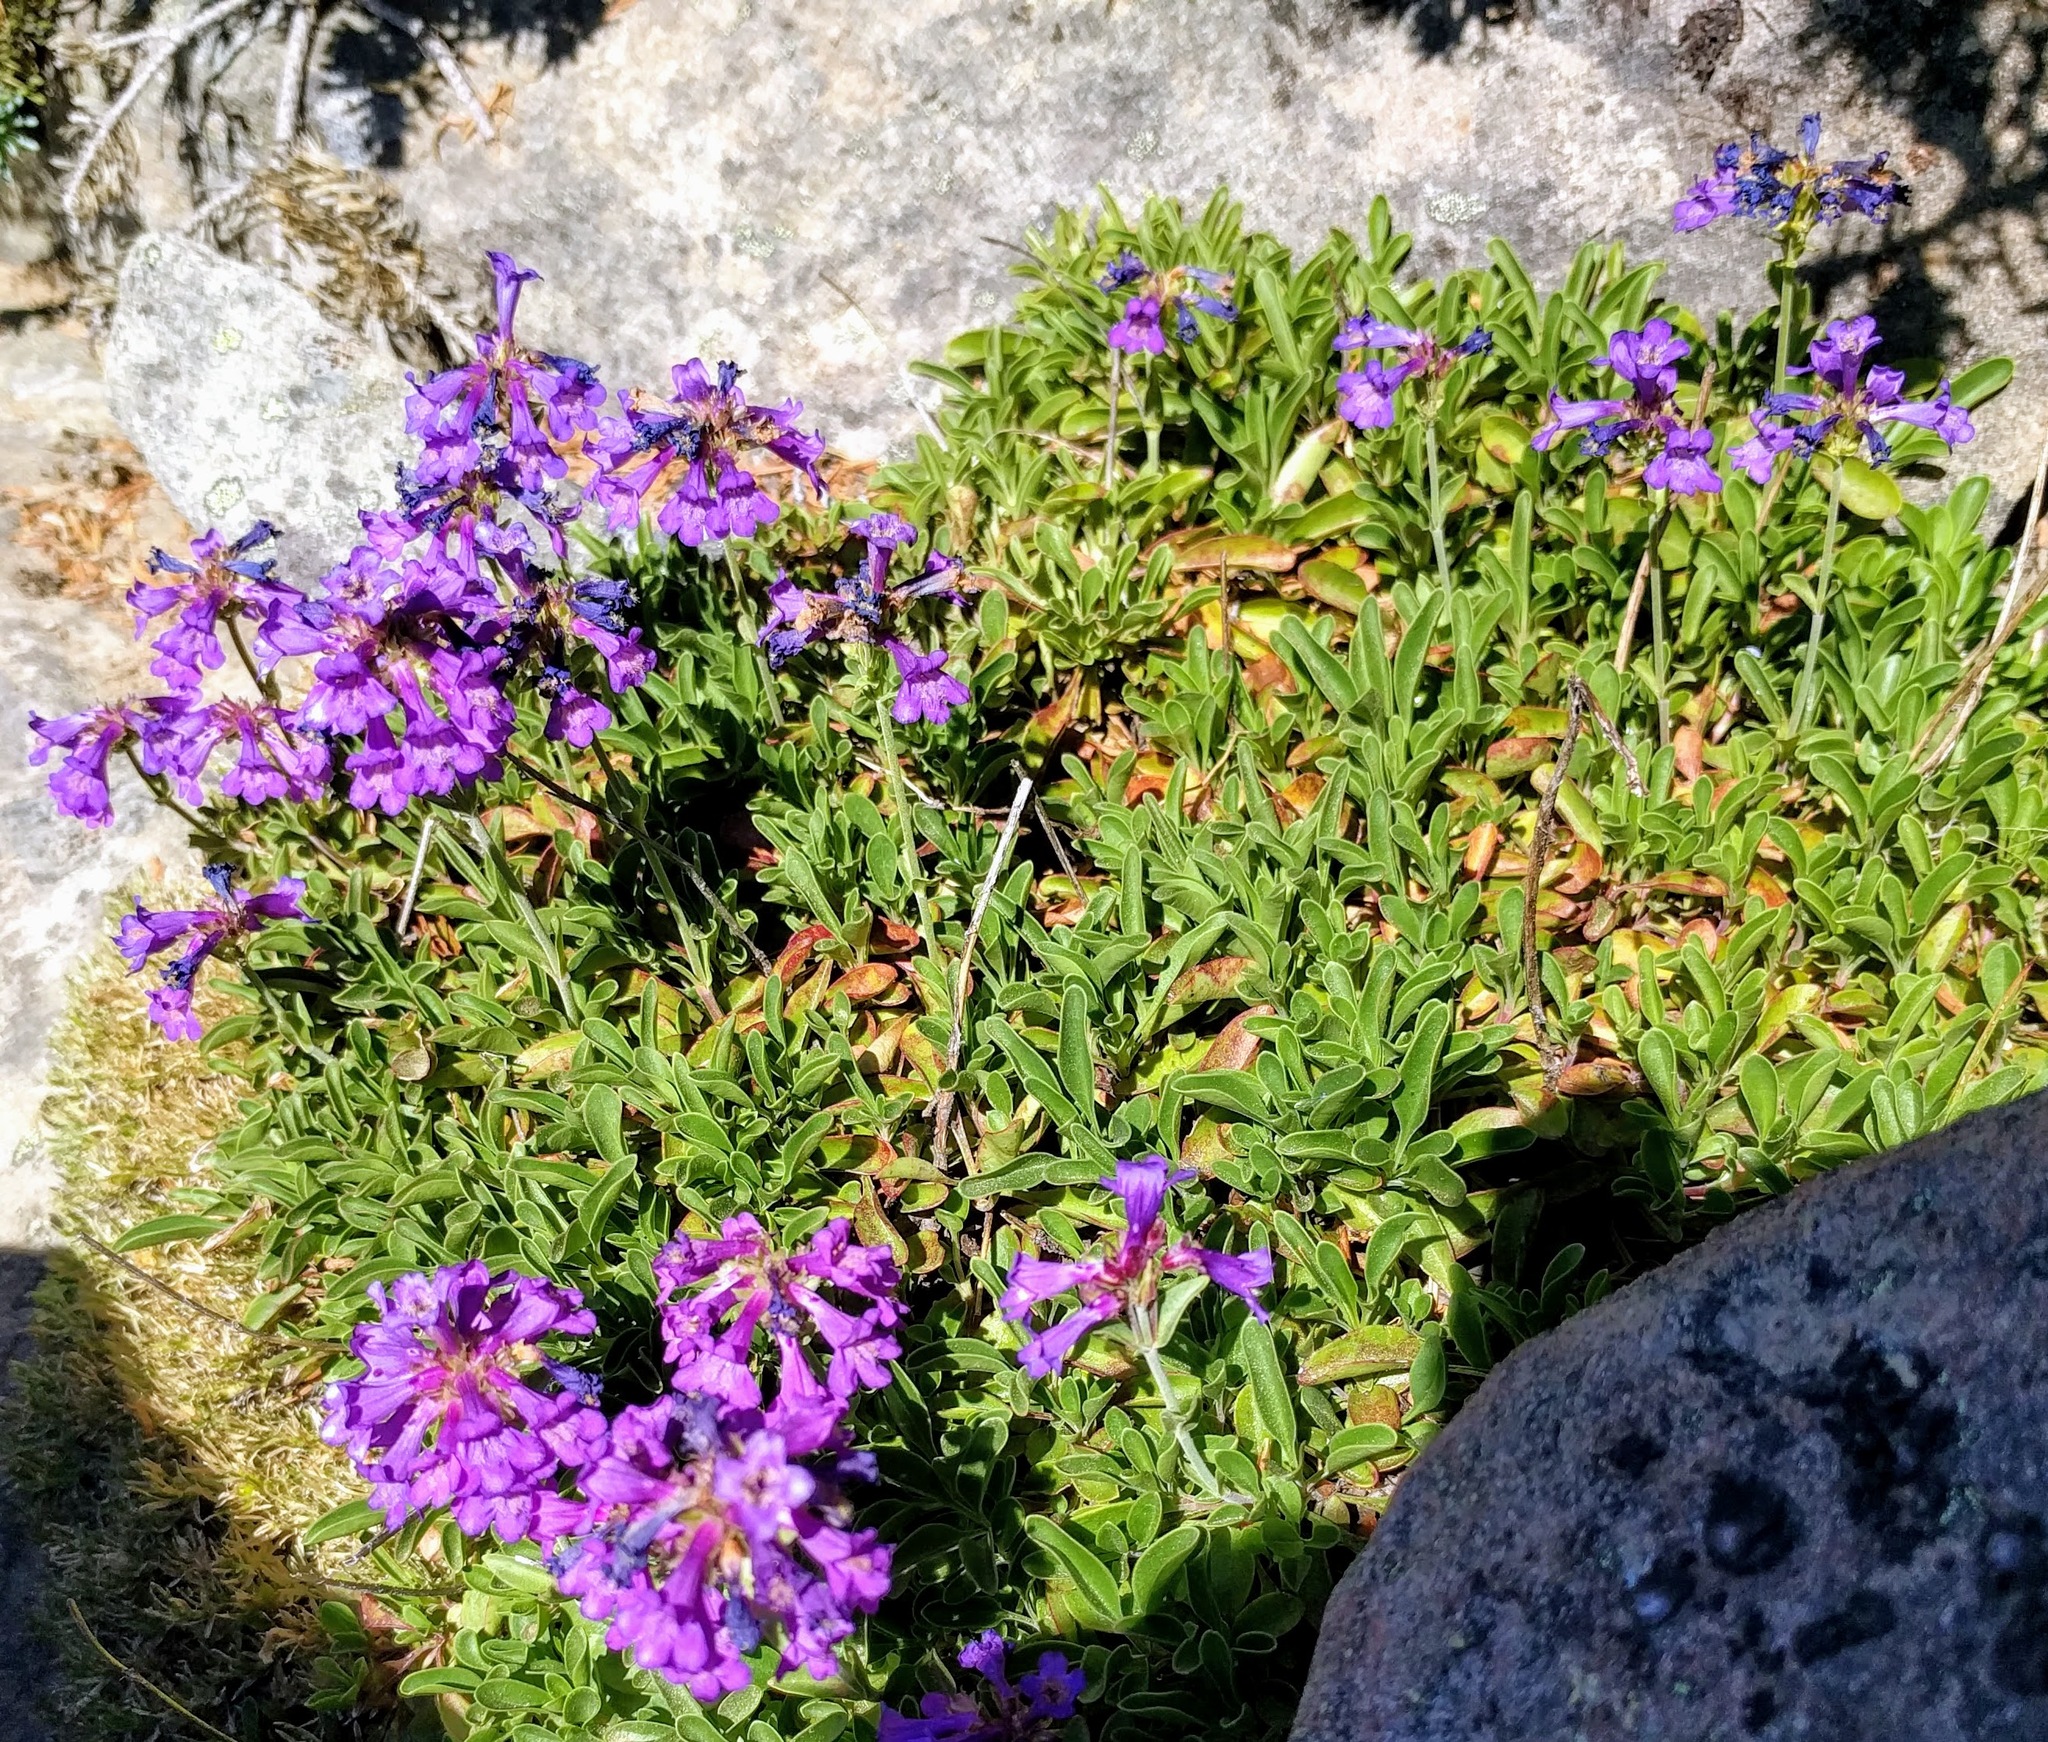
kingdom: Plantae
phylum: Tracheophyta
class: Magnoliopsida
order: Lamiales
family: Plantaginaceae
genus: Penstemon
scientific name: Penstemon procerus
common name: Small-flower penstemon
